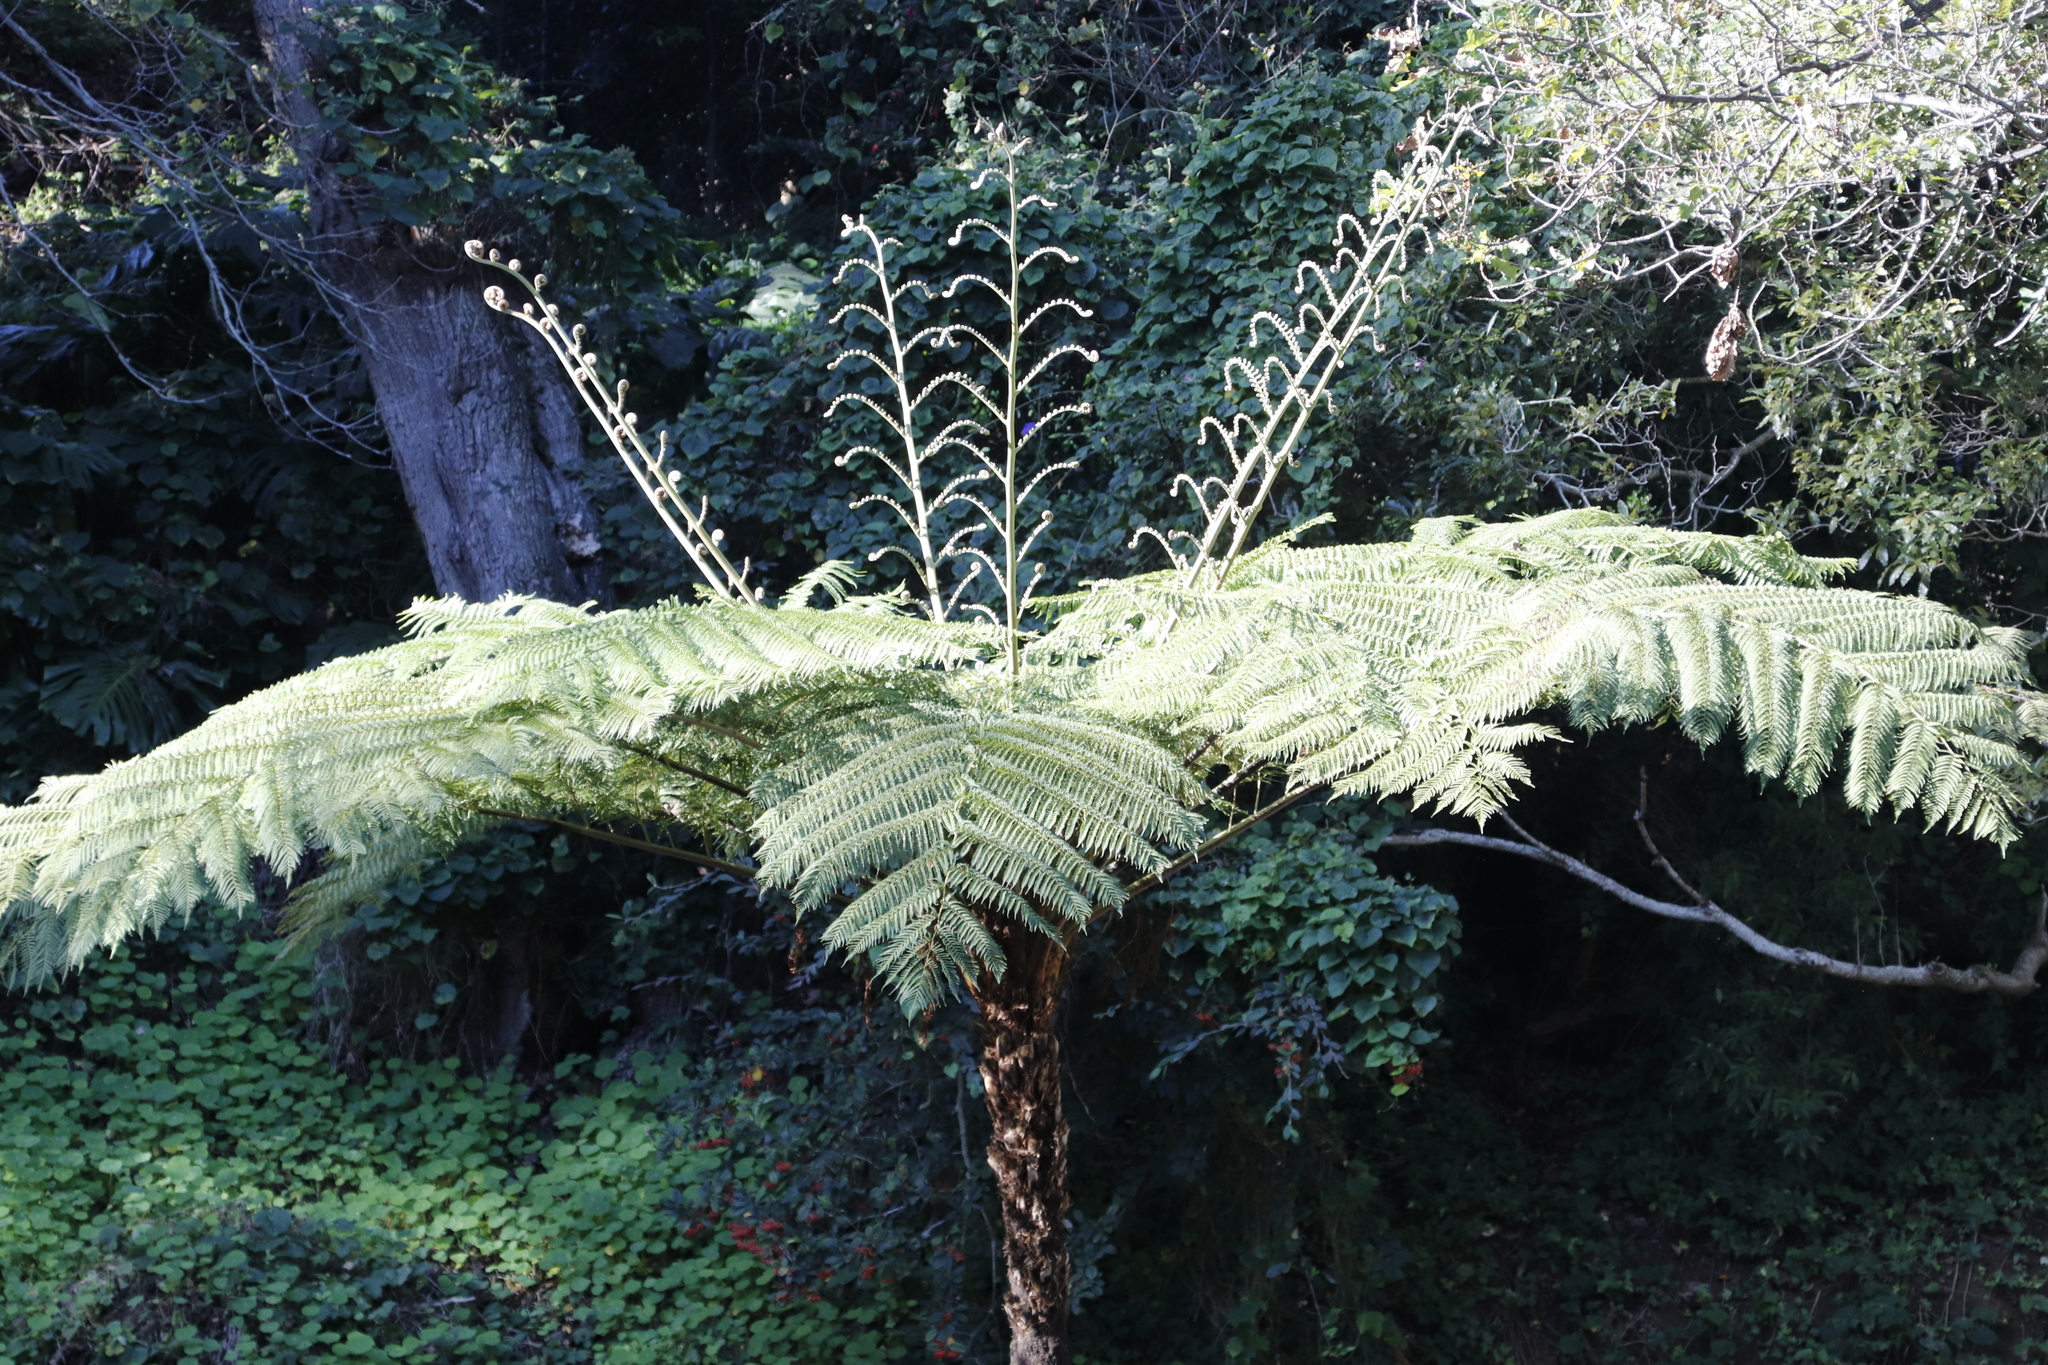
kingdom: Plantae
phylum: Tracheophyta
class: Polypodiopsida
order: Cyatheales
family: Cyatheaceae
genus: Sphaeropteris
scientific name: Sphaeropteris cooperi
